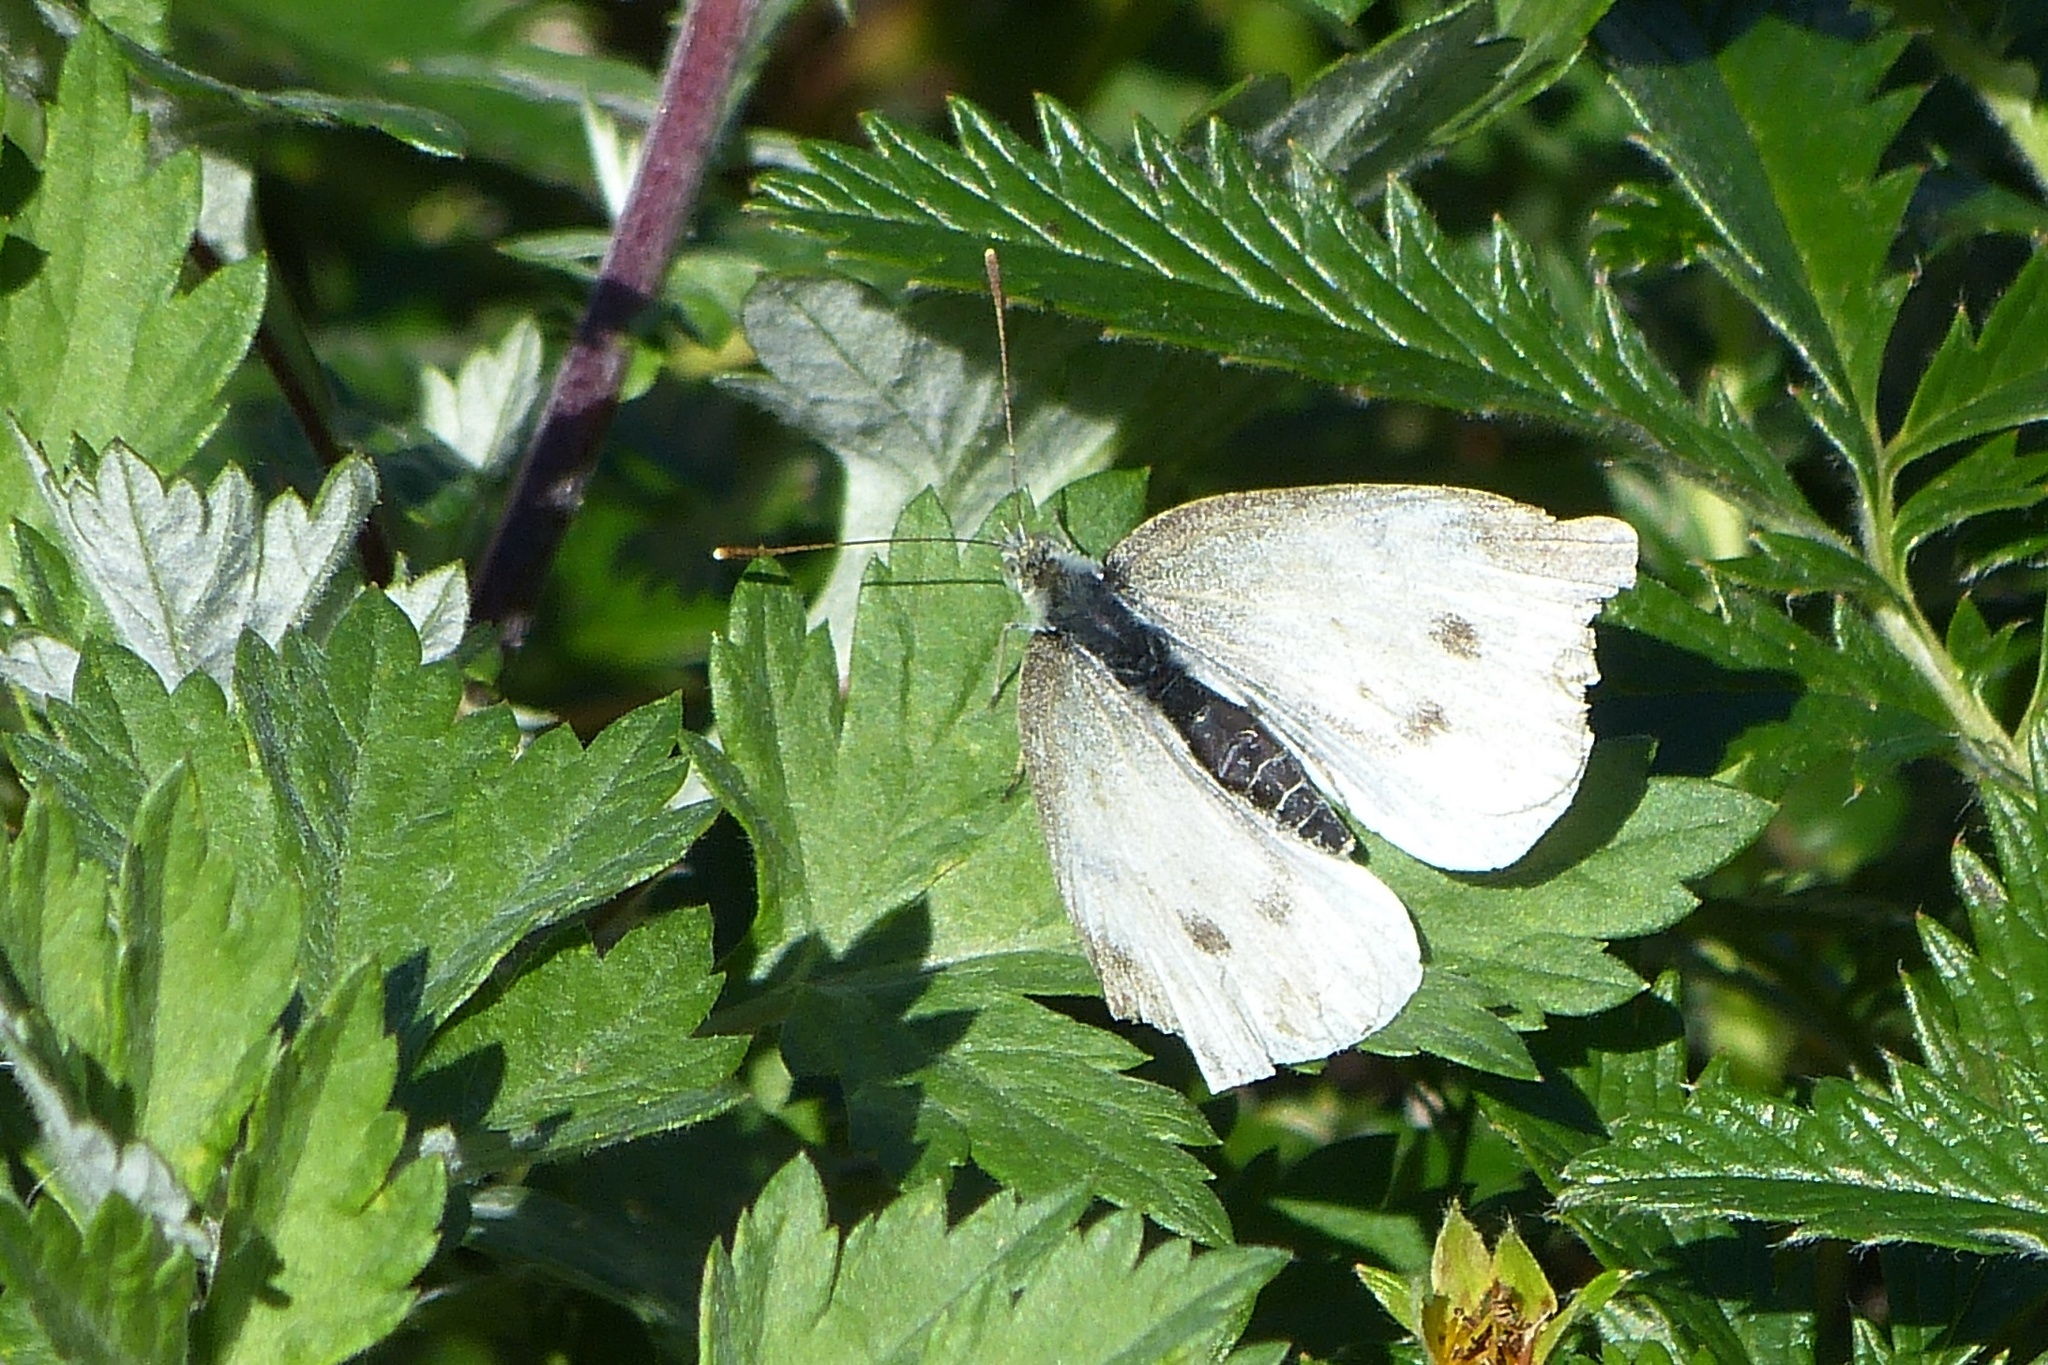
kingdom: Animalia
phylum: Arthropoda
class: Insecta
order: Lepidoptera
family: Pieridae
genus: Pieris
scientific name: Pieris rapae
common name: Small white
